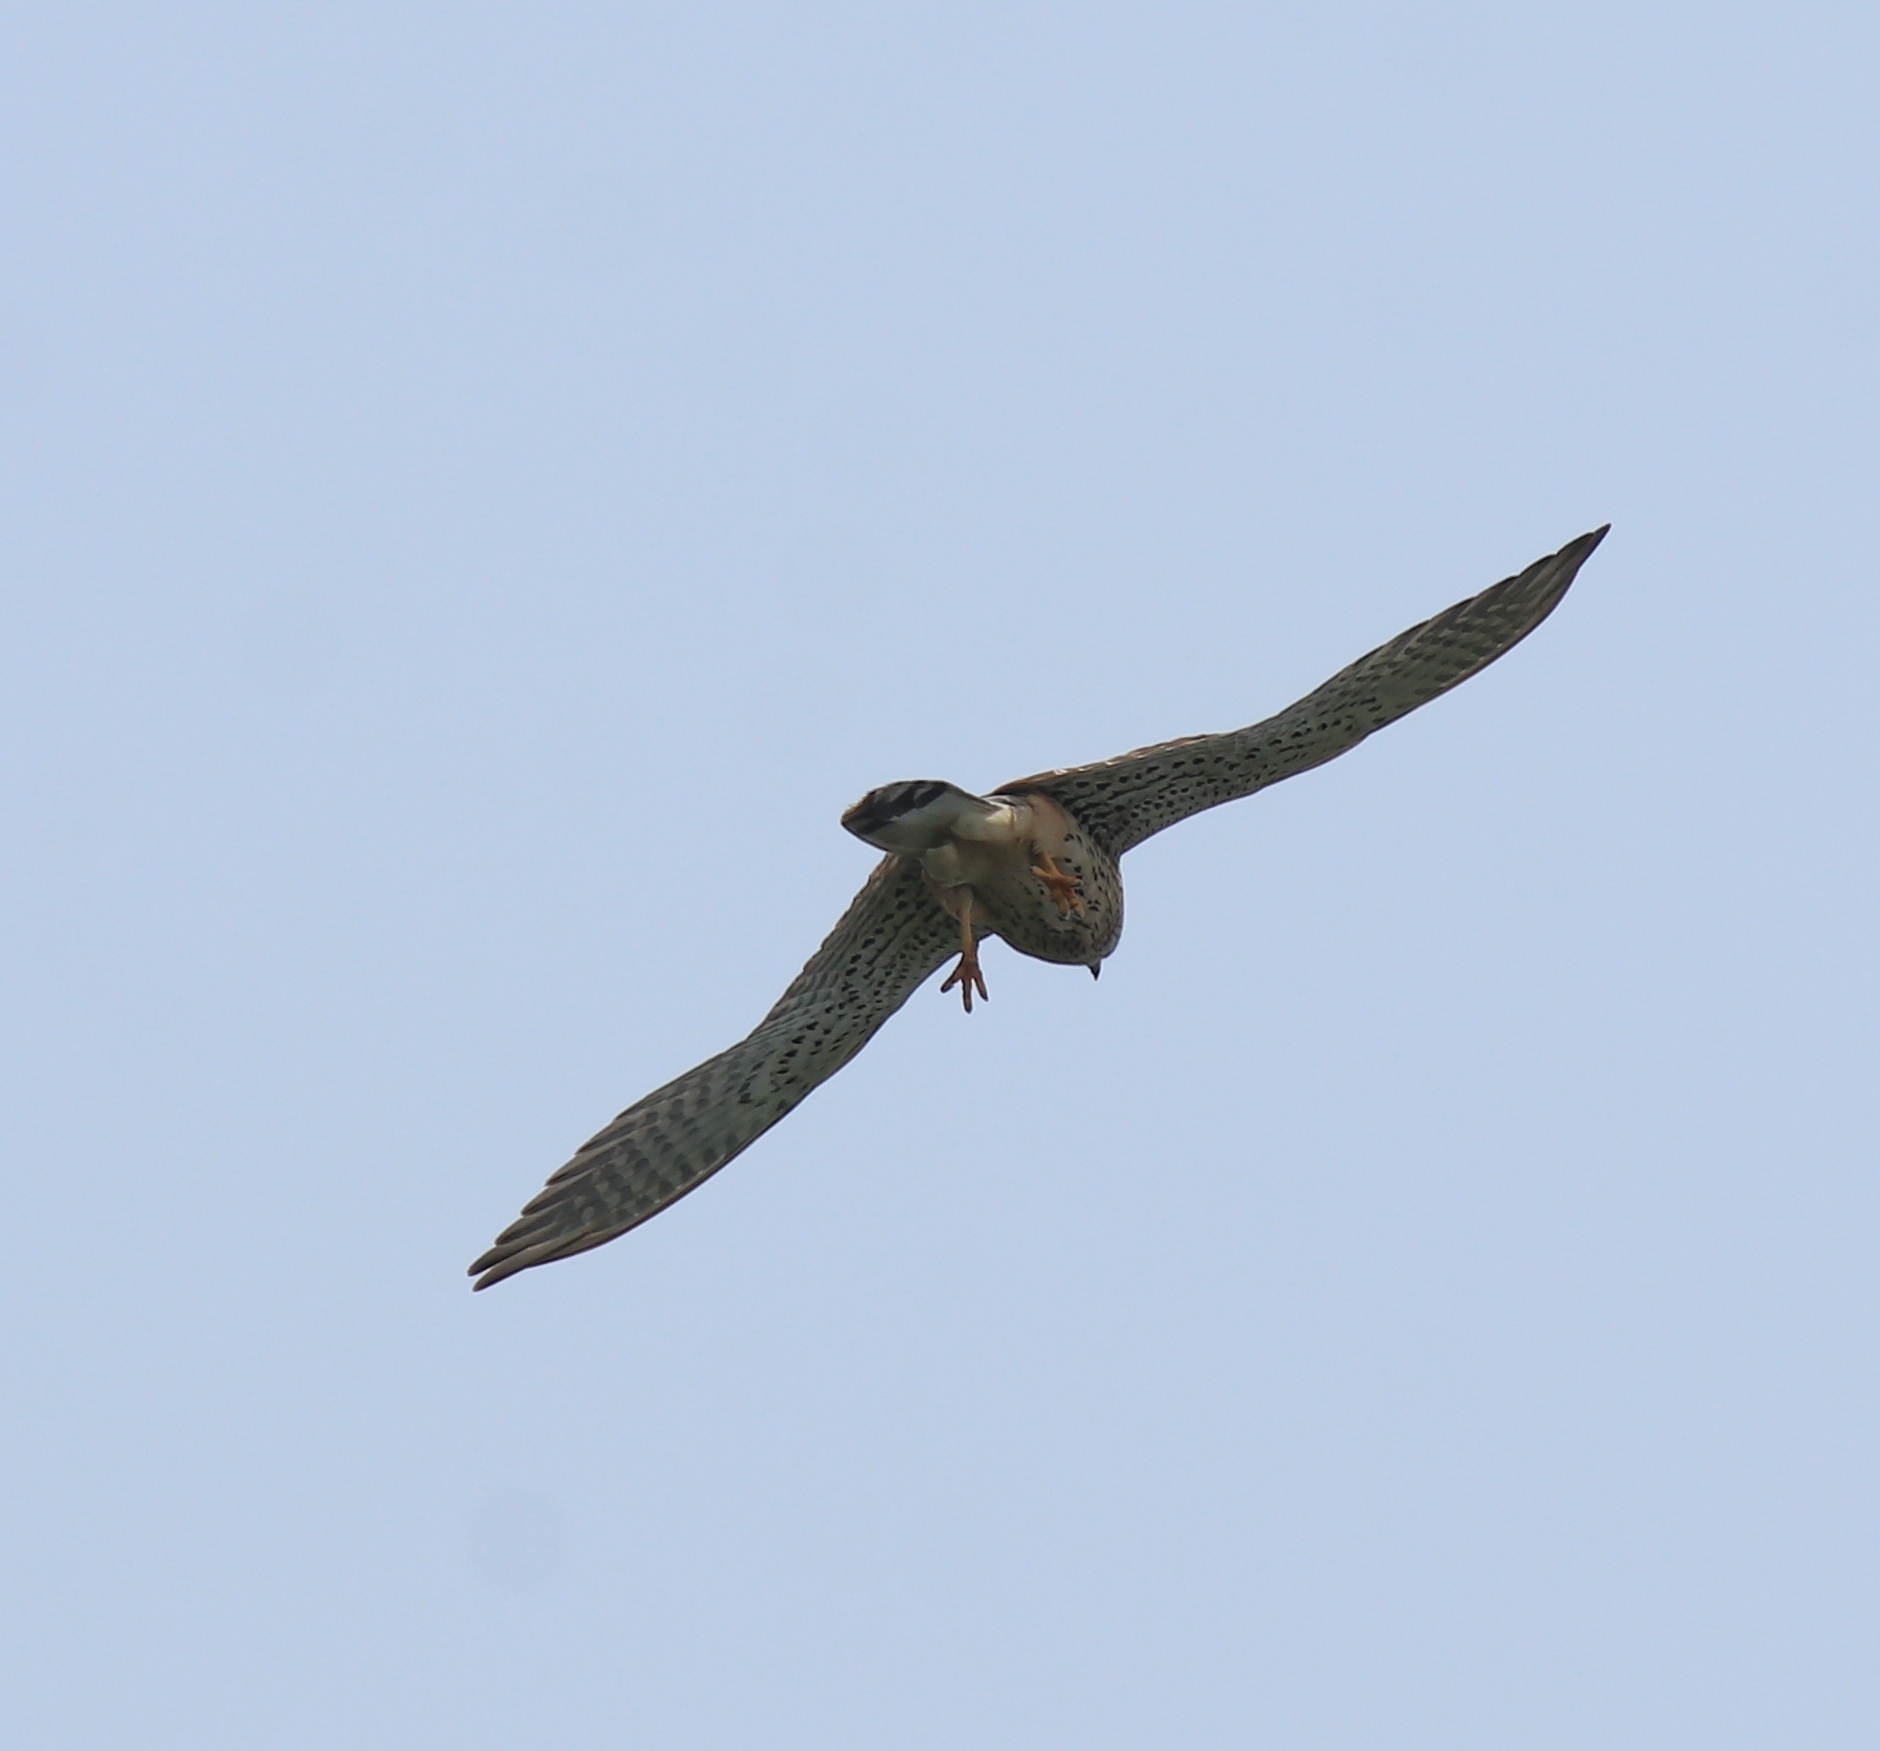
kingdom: Animalia
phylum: Chordata
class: Aves
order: Falconiformes
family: Falconidae
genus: Falco
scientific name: Falco tinnunculus
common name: Common kestrel
